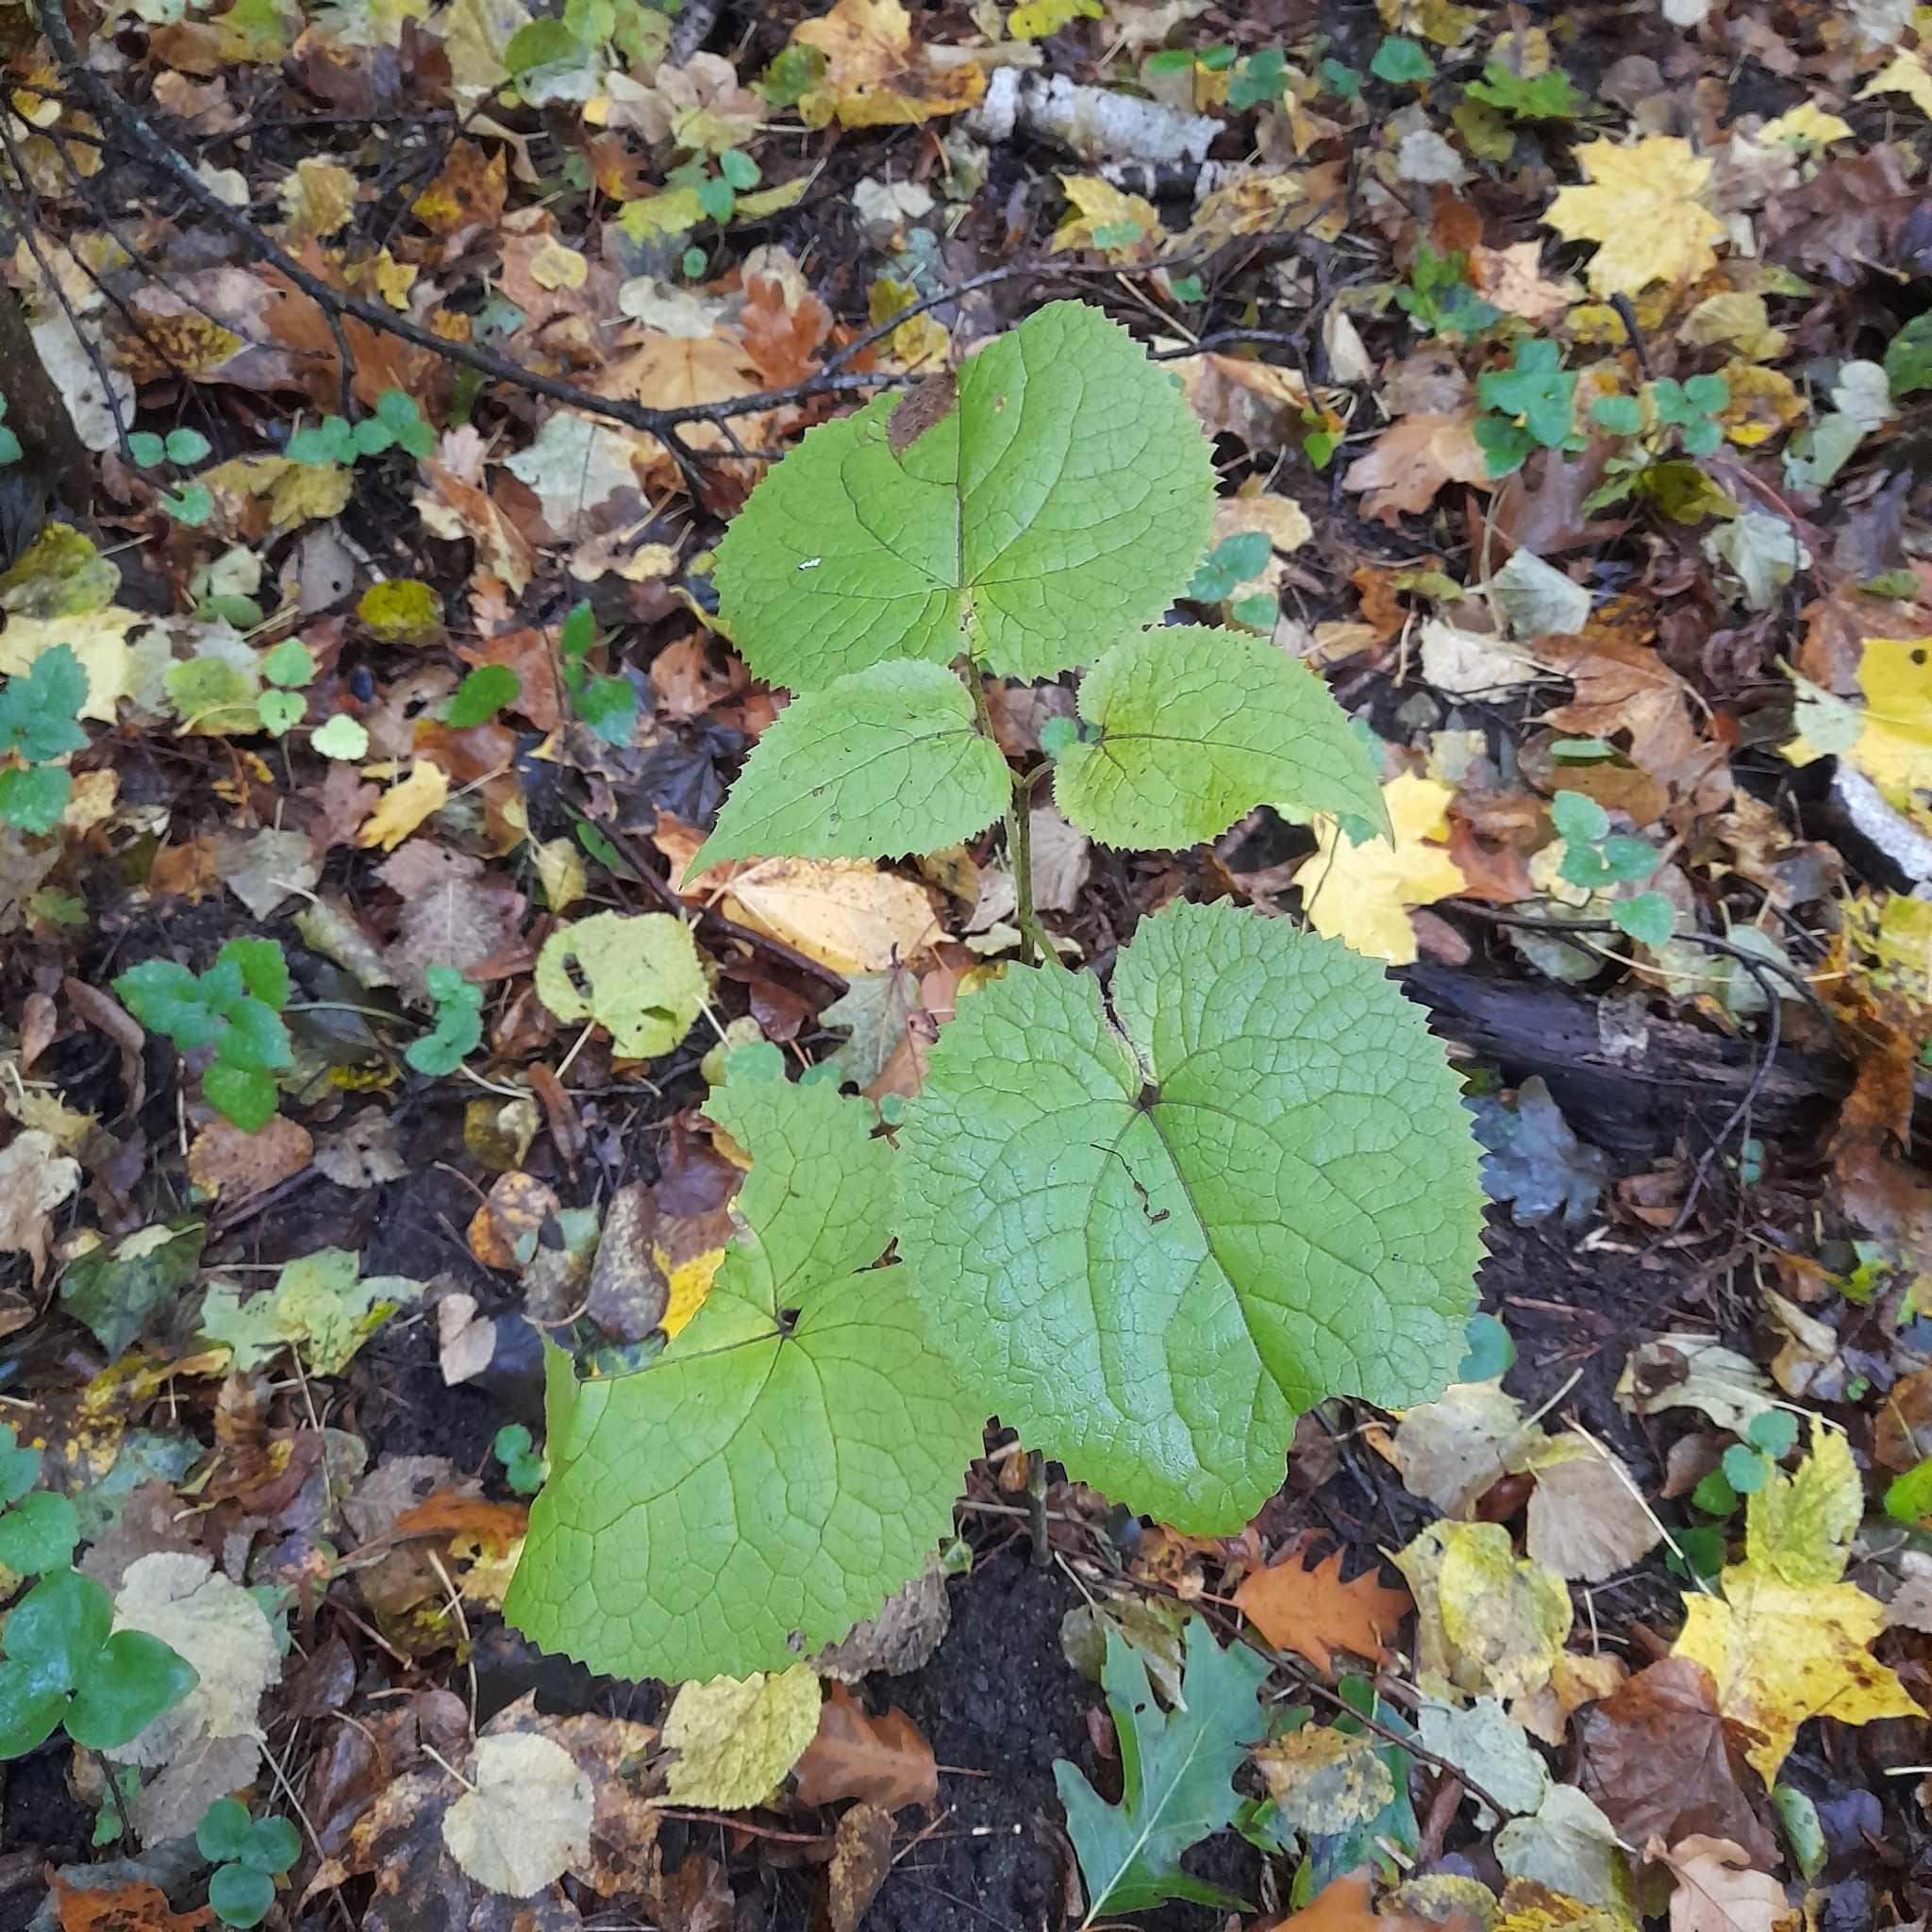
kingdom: Plantae
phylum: Tracheophyta
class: Magnoliopsida
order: Brassicales
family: Brassicaceae
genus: Lunaria
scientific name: Lunaria rediviva
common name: Perennial honesty
